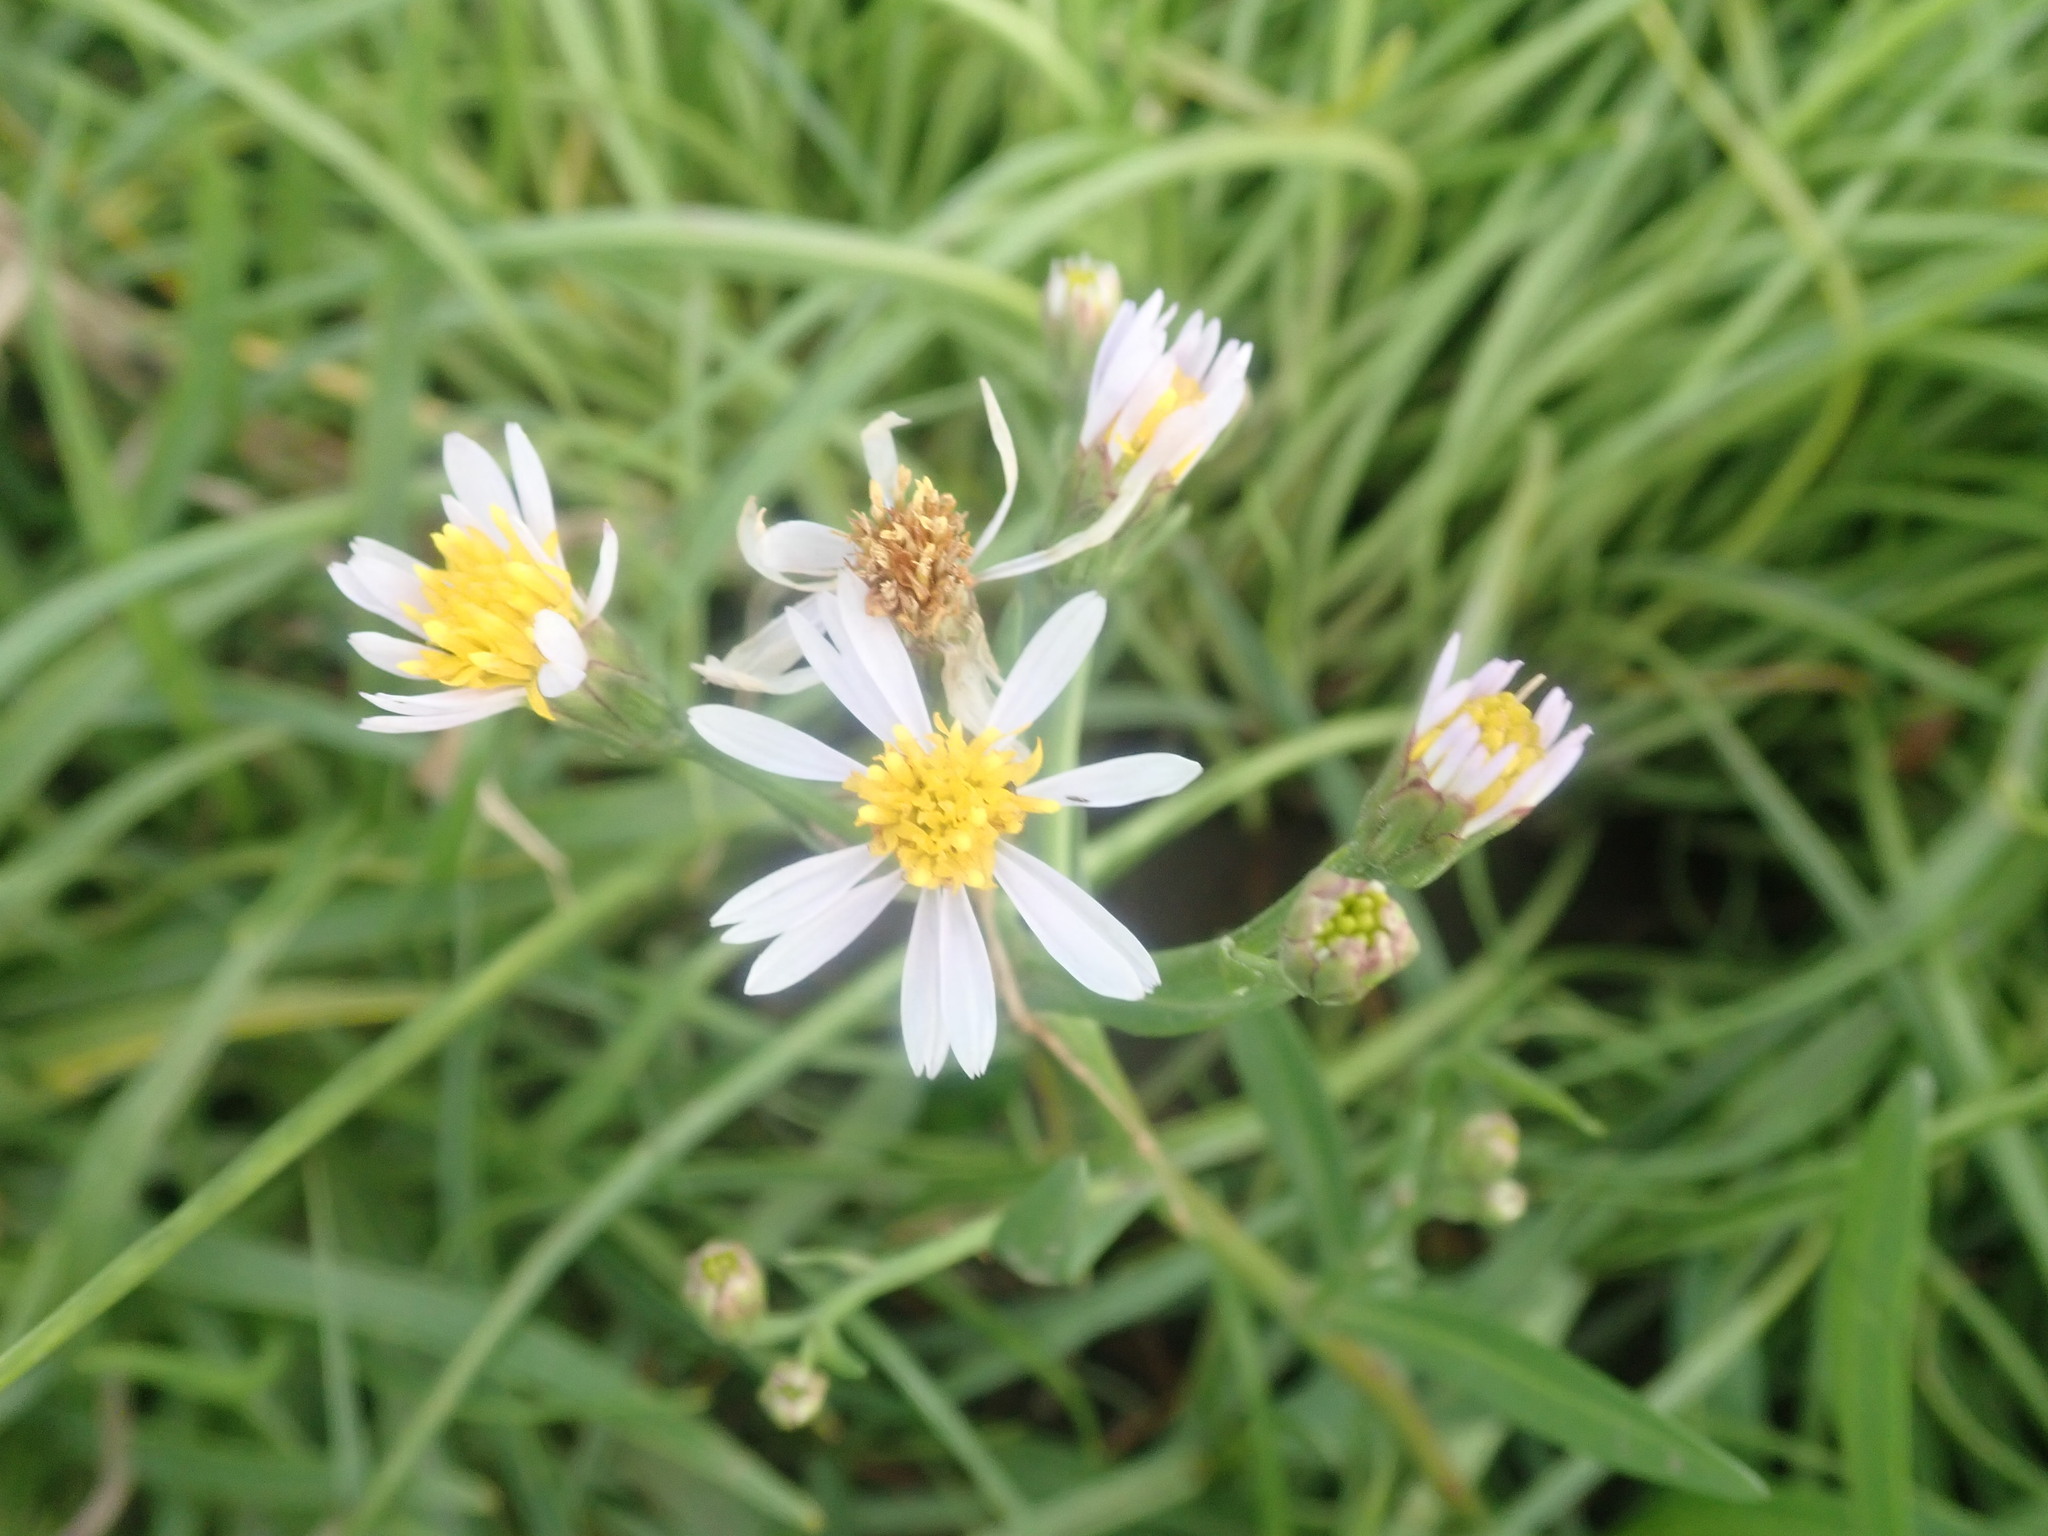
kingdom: Plantae
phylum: Tracheophyta
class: Magnoliopsida
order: Asterales
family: Asteraceae
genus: Tripolium
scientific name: Tripolium pannonicum
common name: Sea aster
